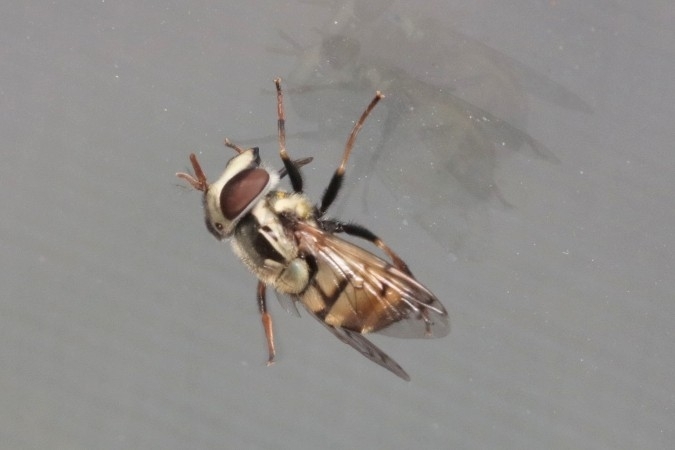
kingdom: Animalia
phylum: Arthropoda
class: Insecta
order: Diptera
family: Syrphidae
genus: Copestylum
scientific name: Copestylum satur
